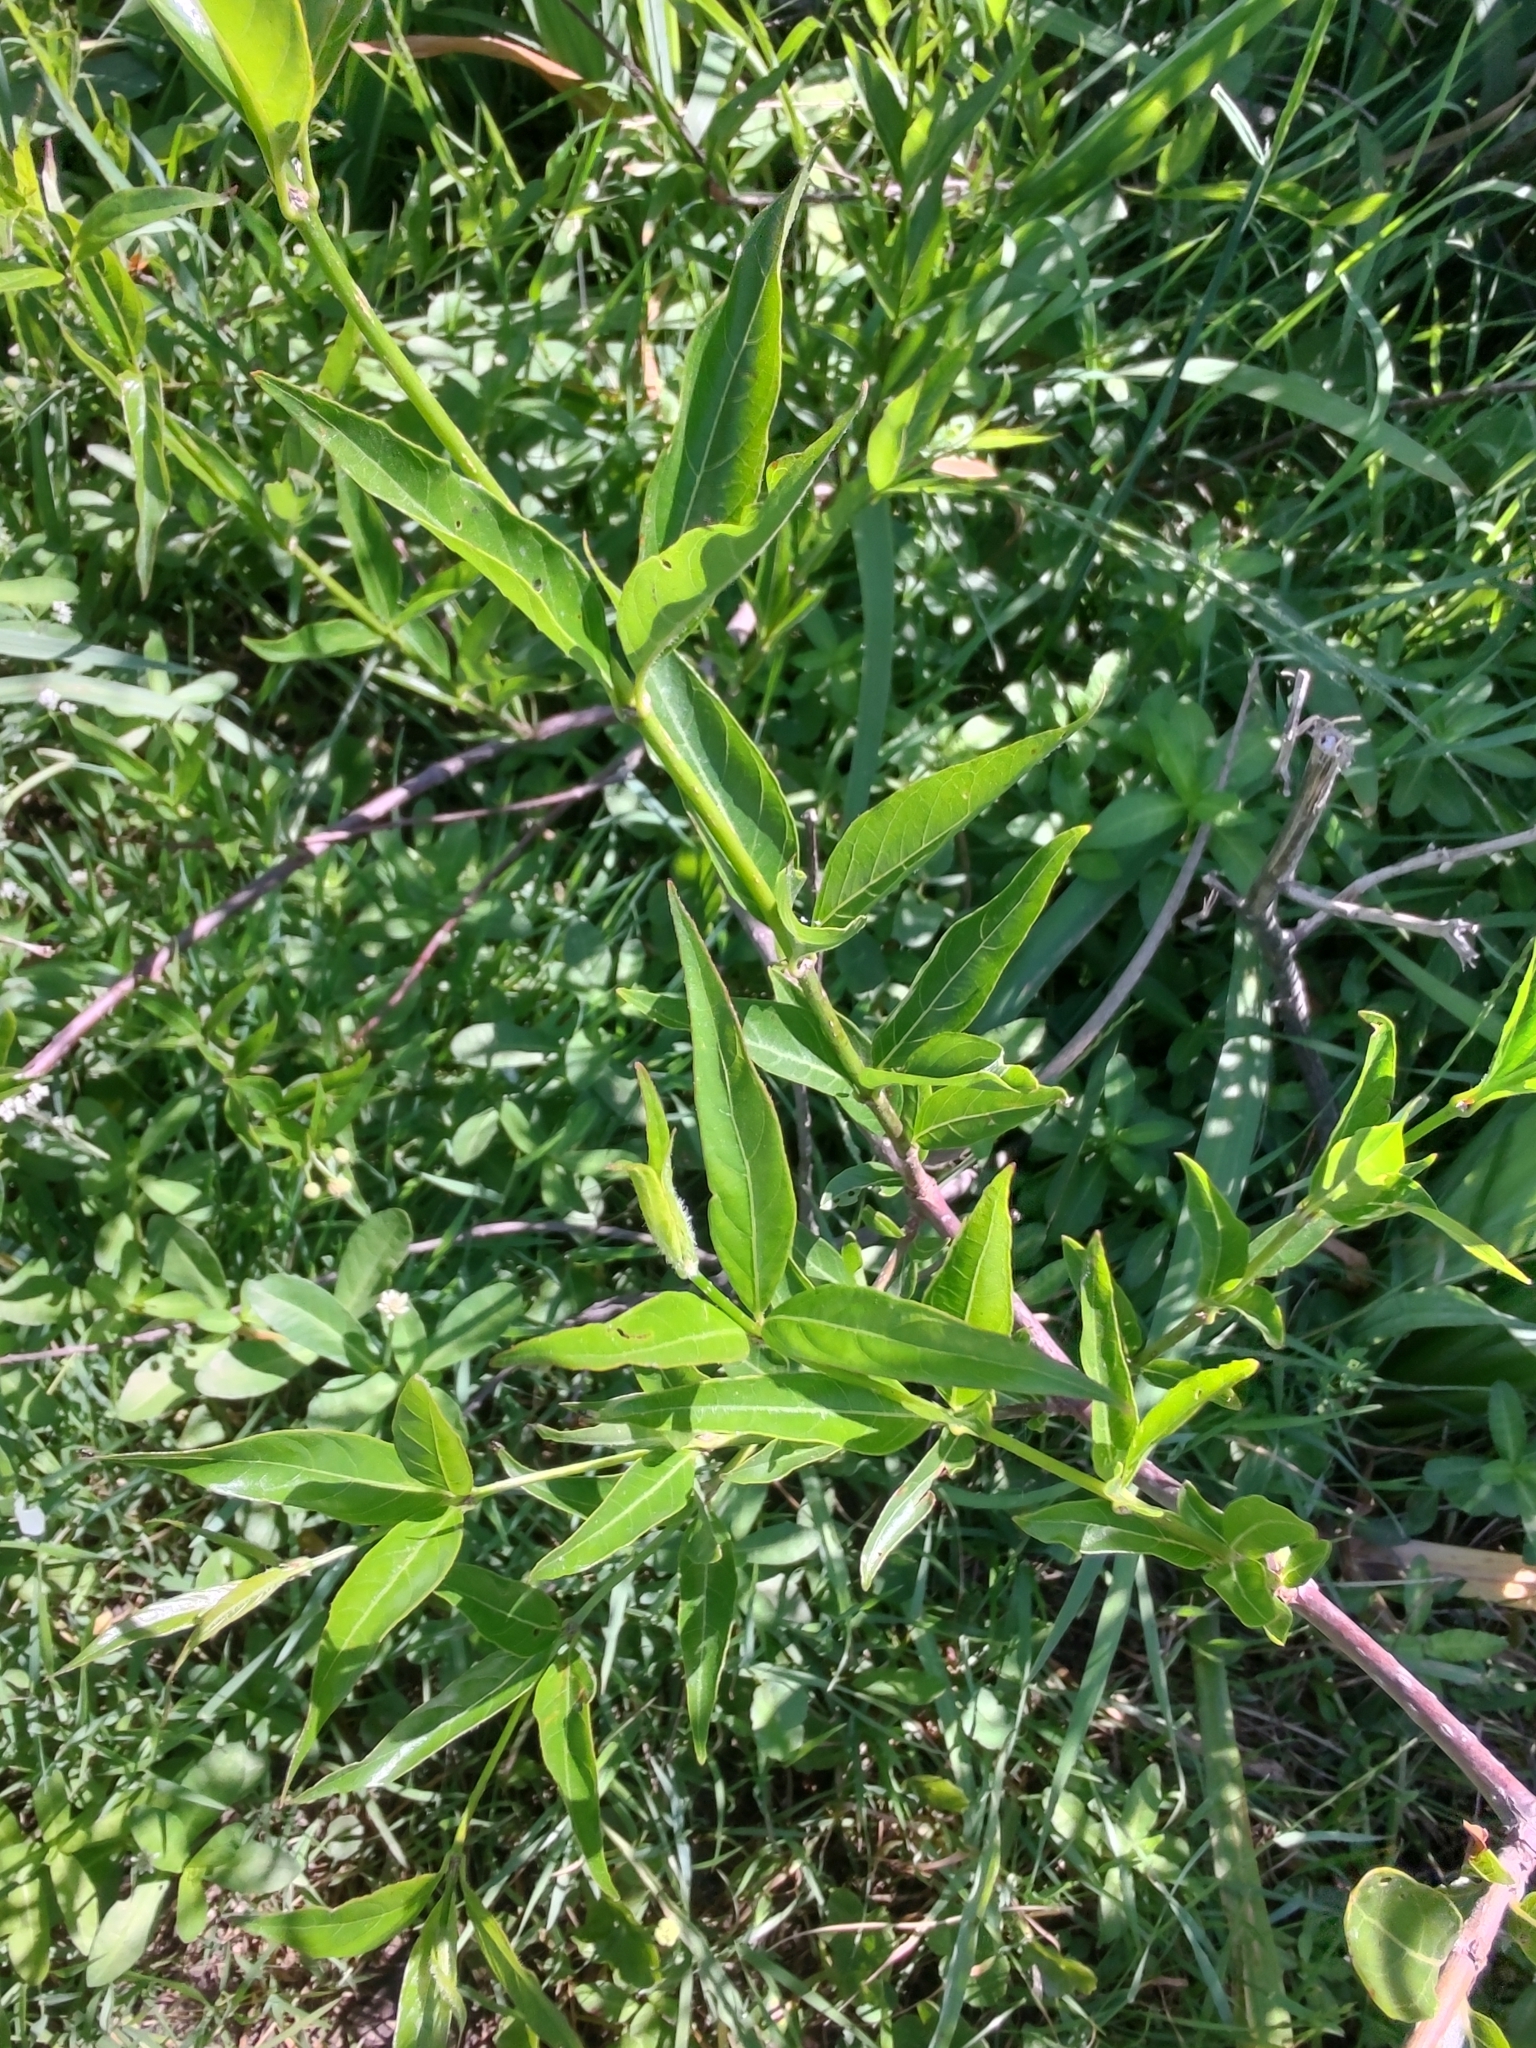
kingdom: Plantae
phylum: Tracheophyta
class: Magnoliopsida
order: Gentianales
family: Rubiaceae
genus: Cephalanthus
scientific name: Cephalanthus glabratus
